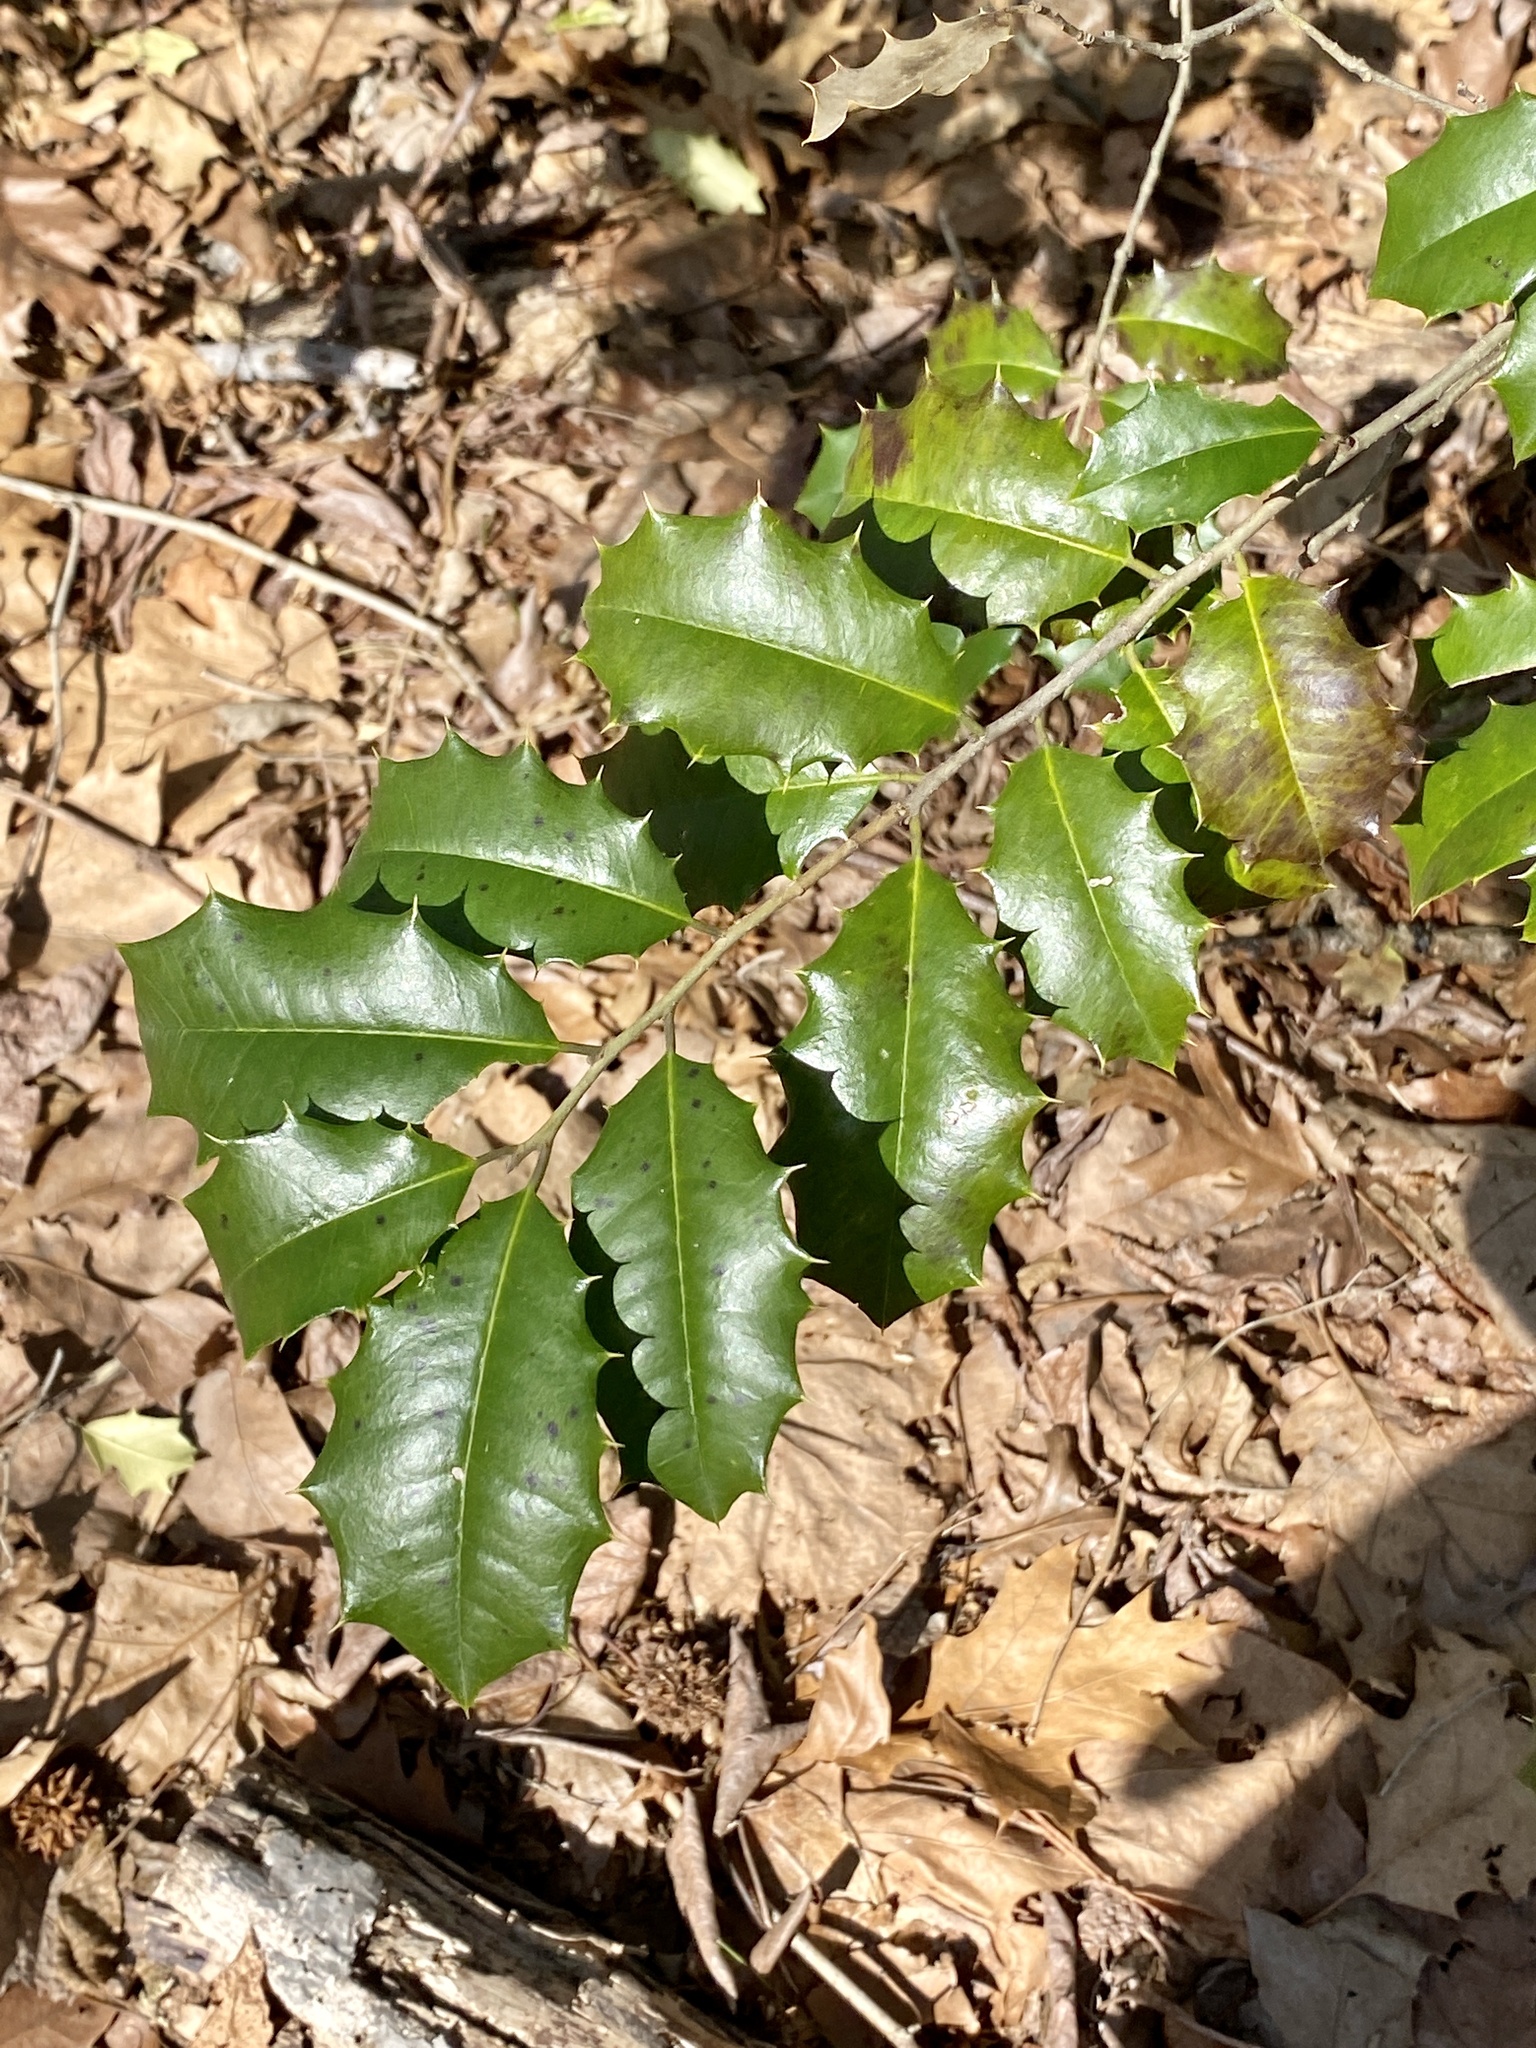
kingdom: Plantae
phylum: Tracheophyta
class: Magnoliopsida
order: Aquifoliales
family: Aquifoliaceae
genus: Ilex
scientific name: Ilex opaca
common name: American holly
